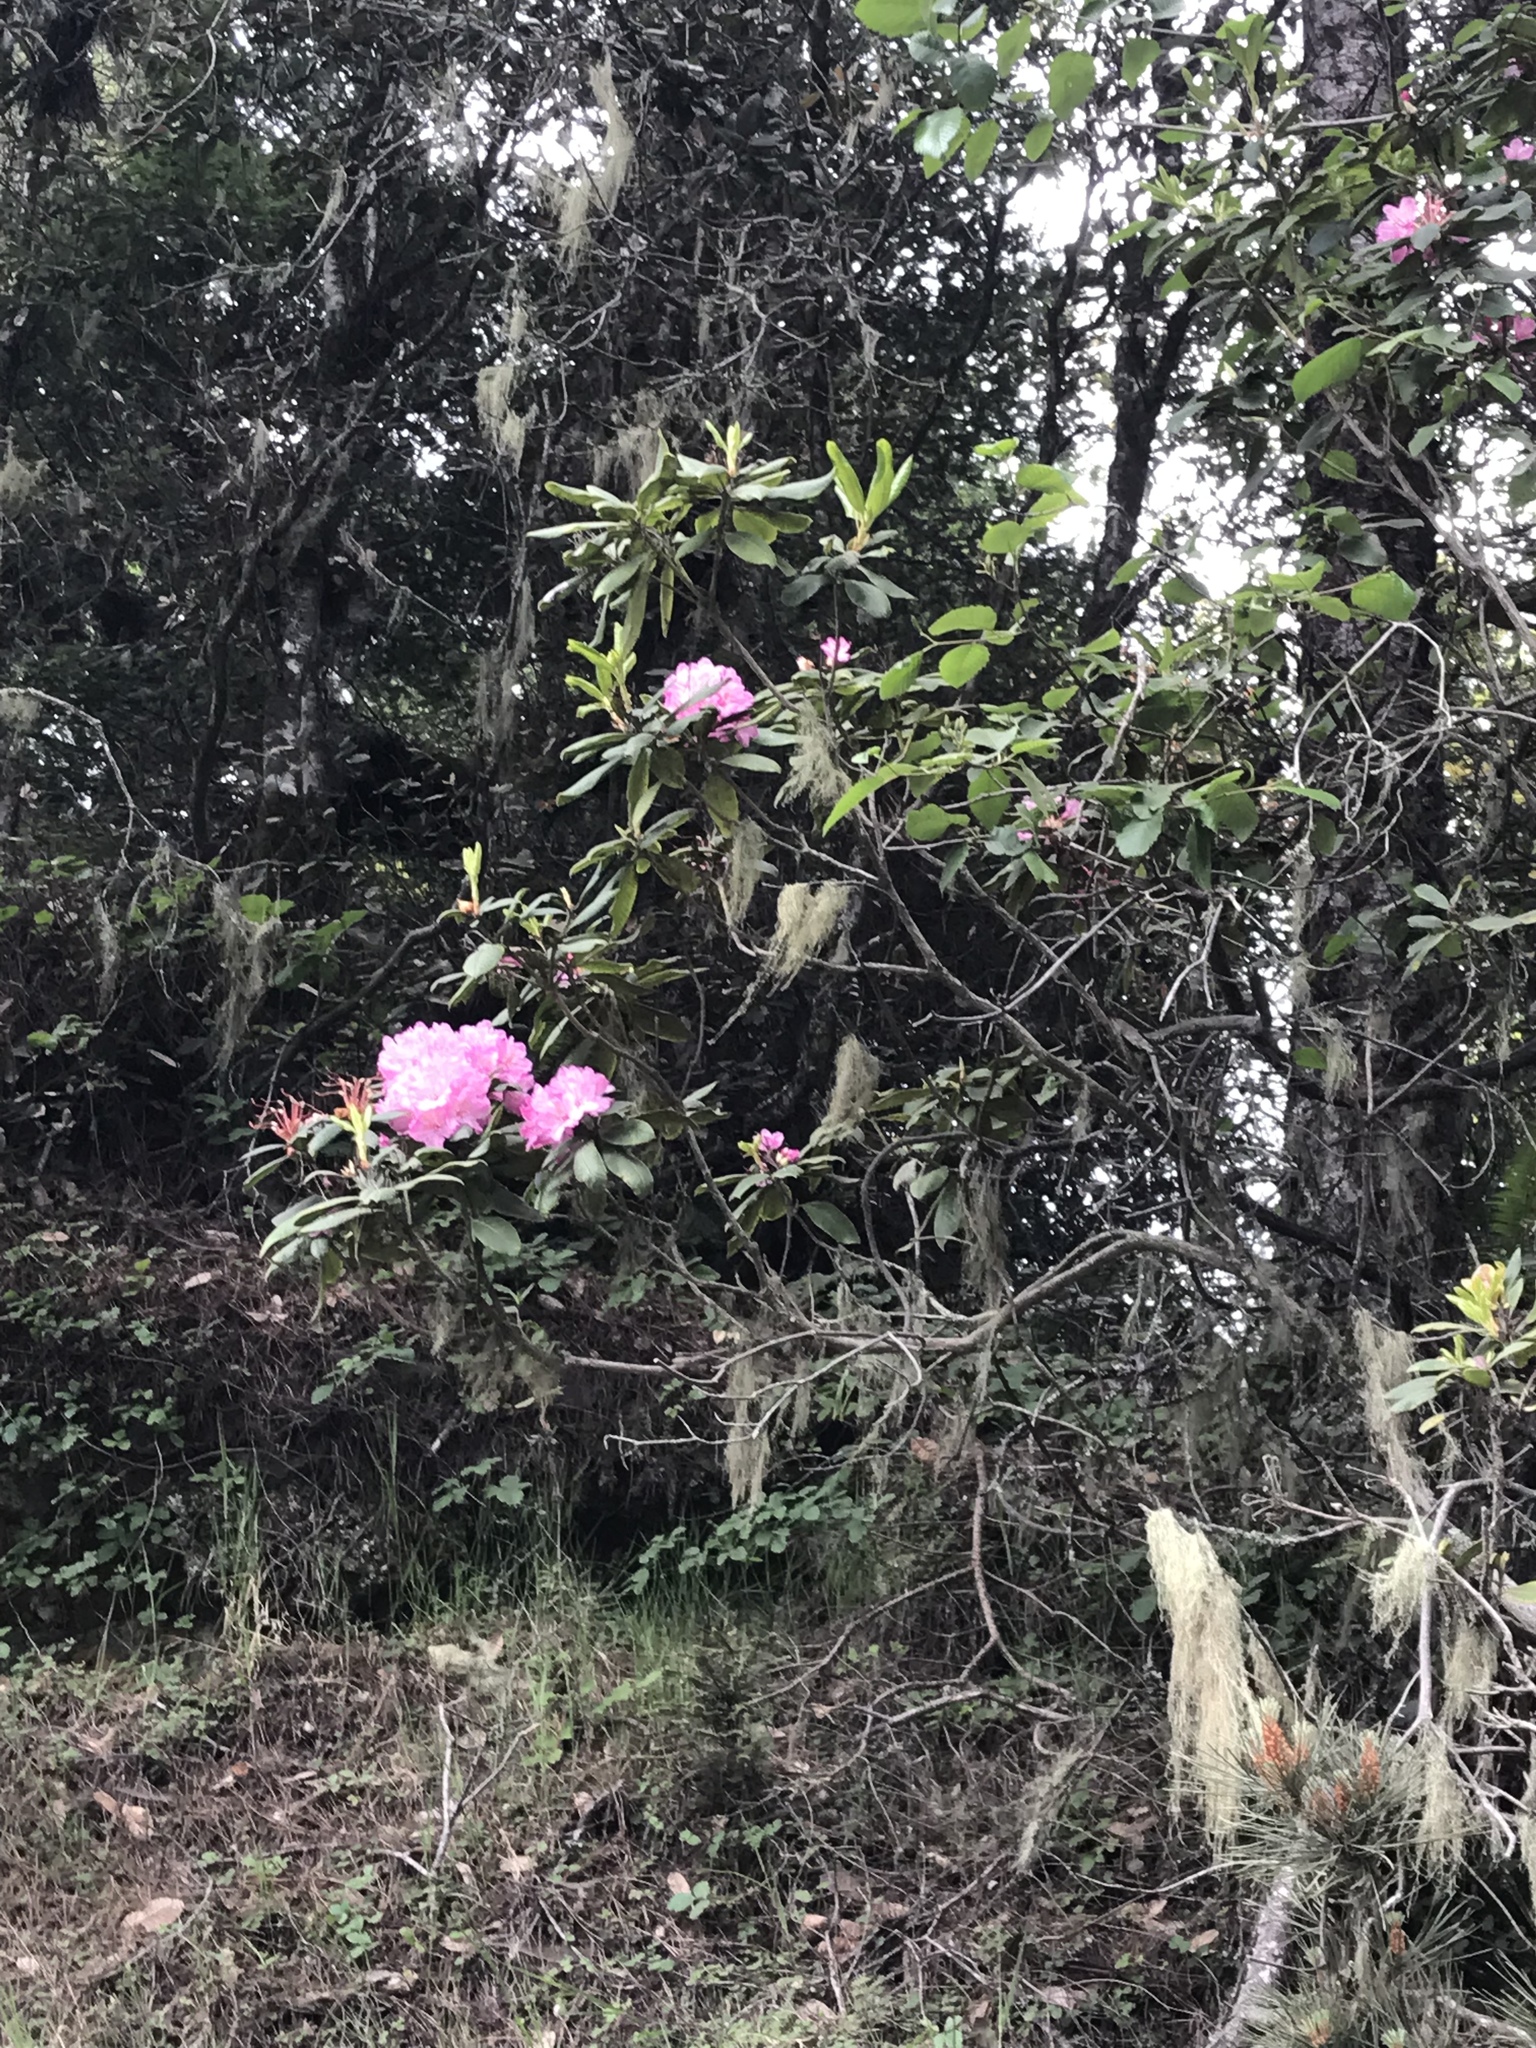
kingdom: Plantae
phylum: Tracheophyta
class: Magnoliopsida
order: Ericales
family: Ericaceae
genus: Rhododendron
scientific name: Rhododendron macrophyllum
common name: California rose bay
